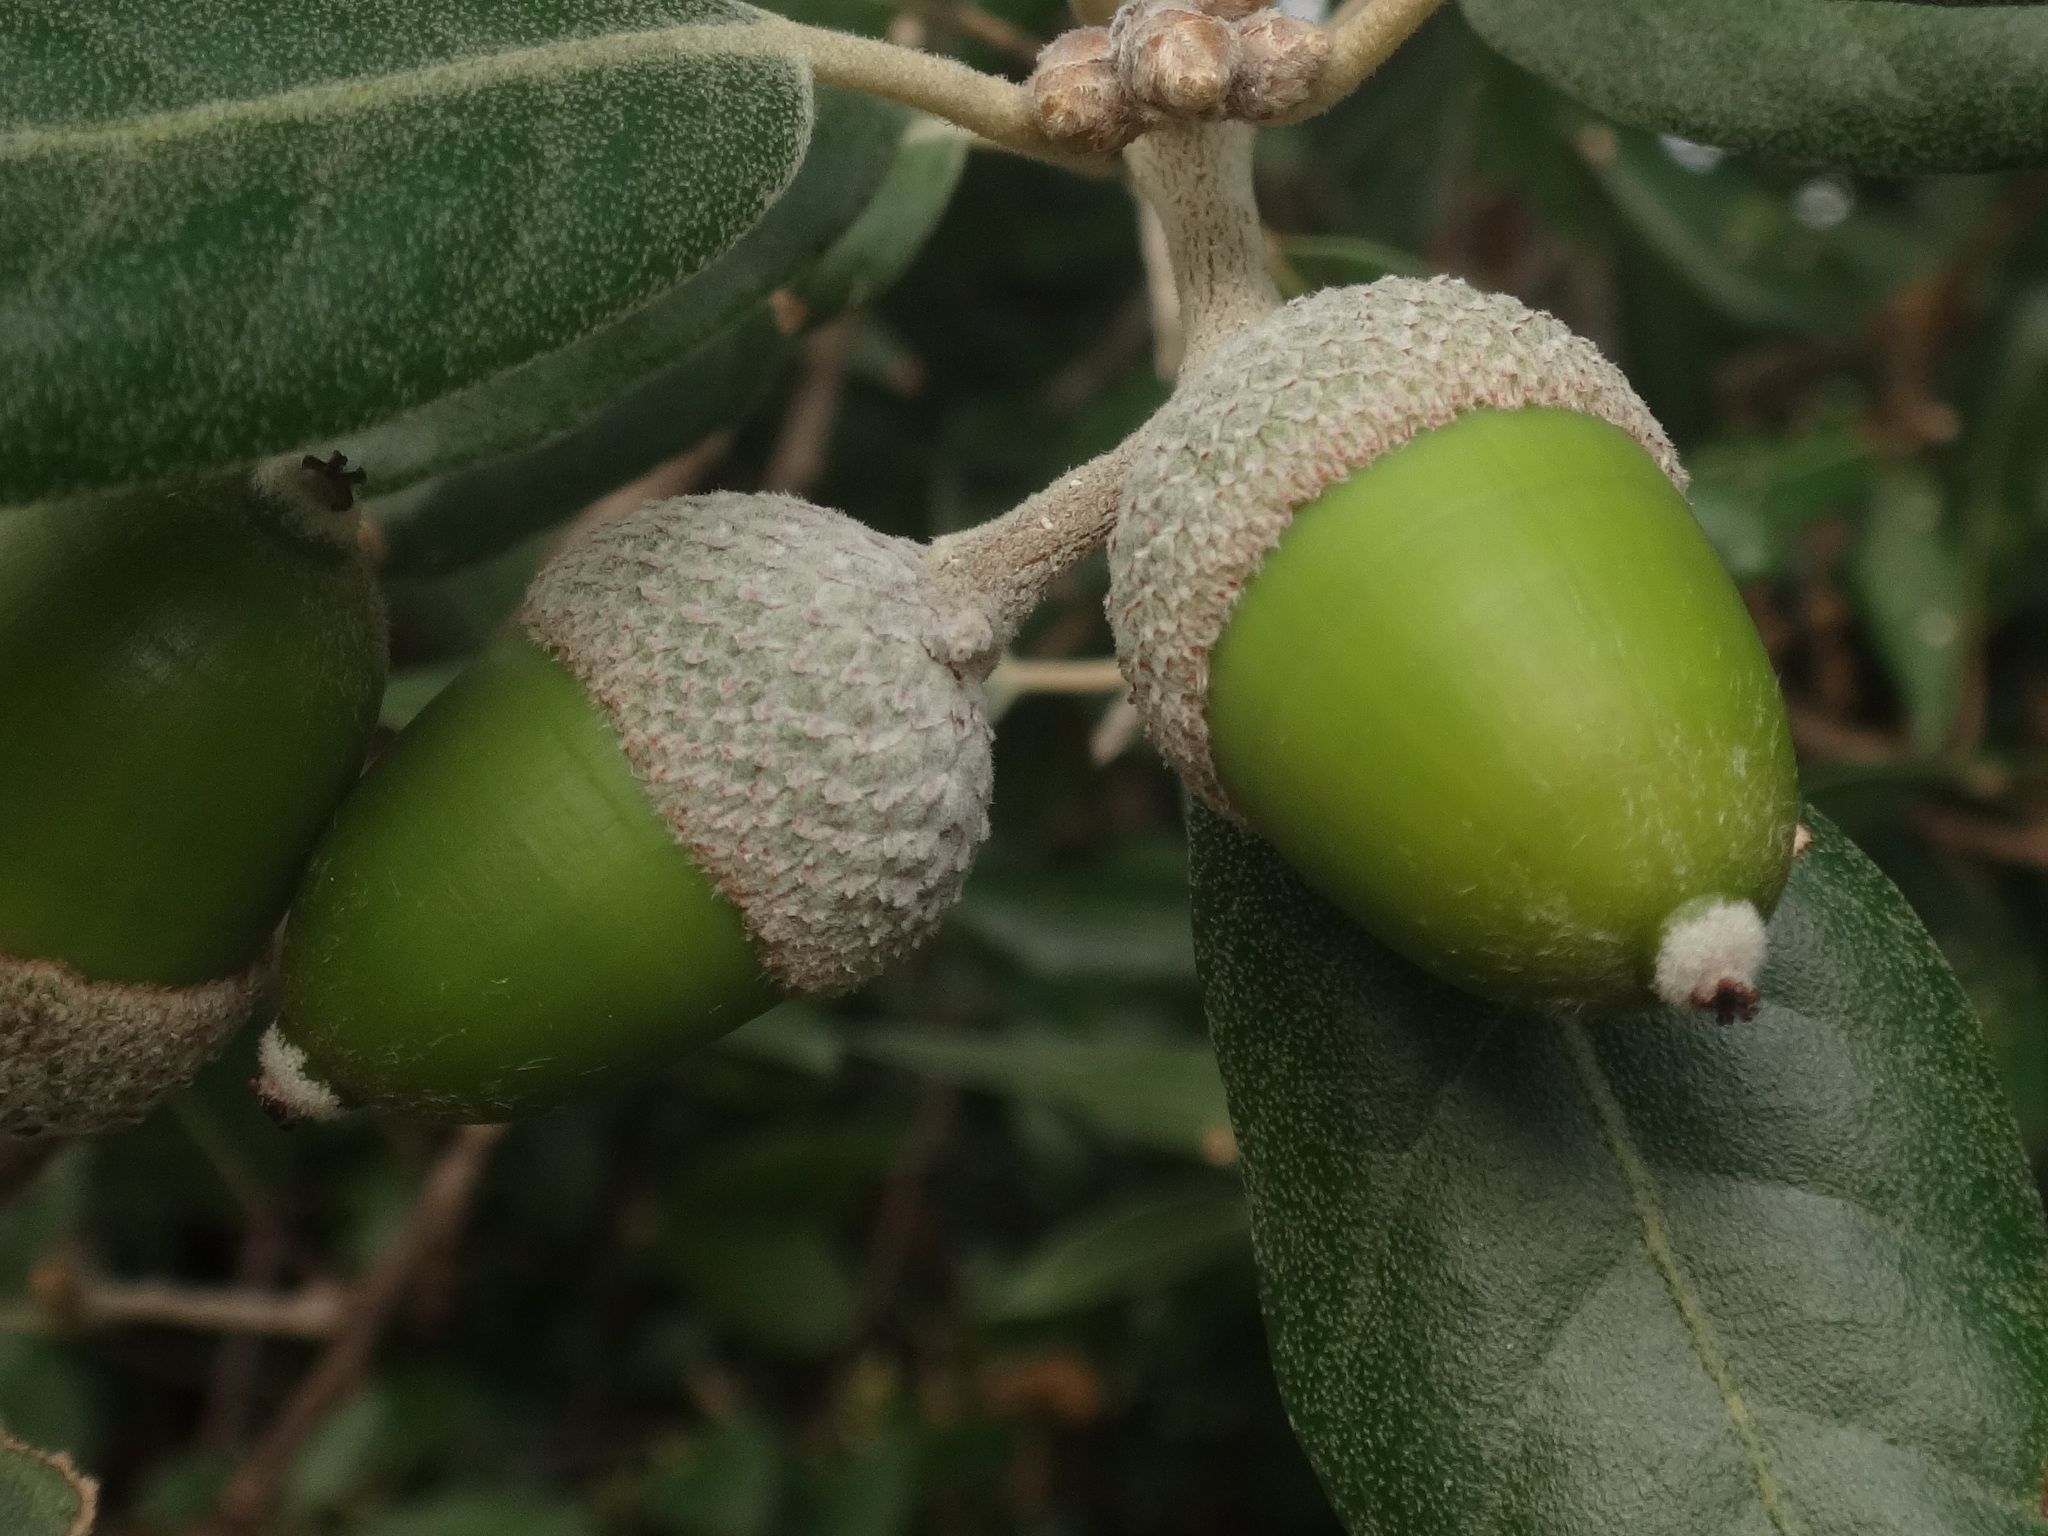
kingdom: Plantae
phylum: Tracheophyta
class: Magnoliopsida
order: Fagales
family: Fagaceae
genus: Quercus
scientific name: Quercus ilex
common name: Evergreen oak
